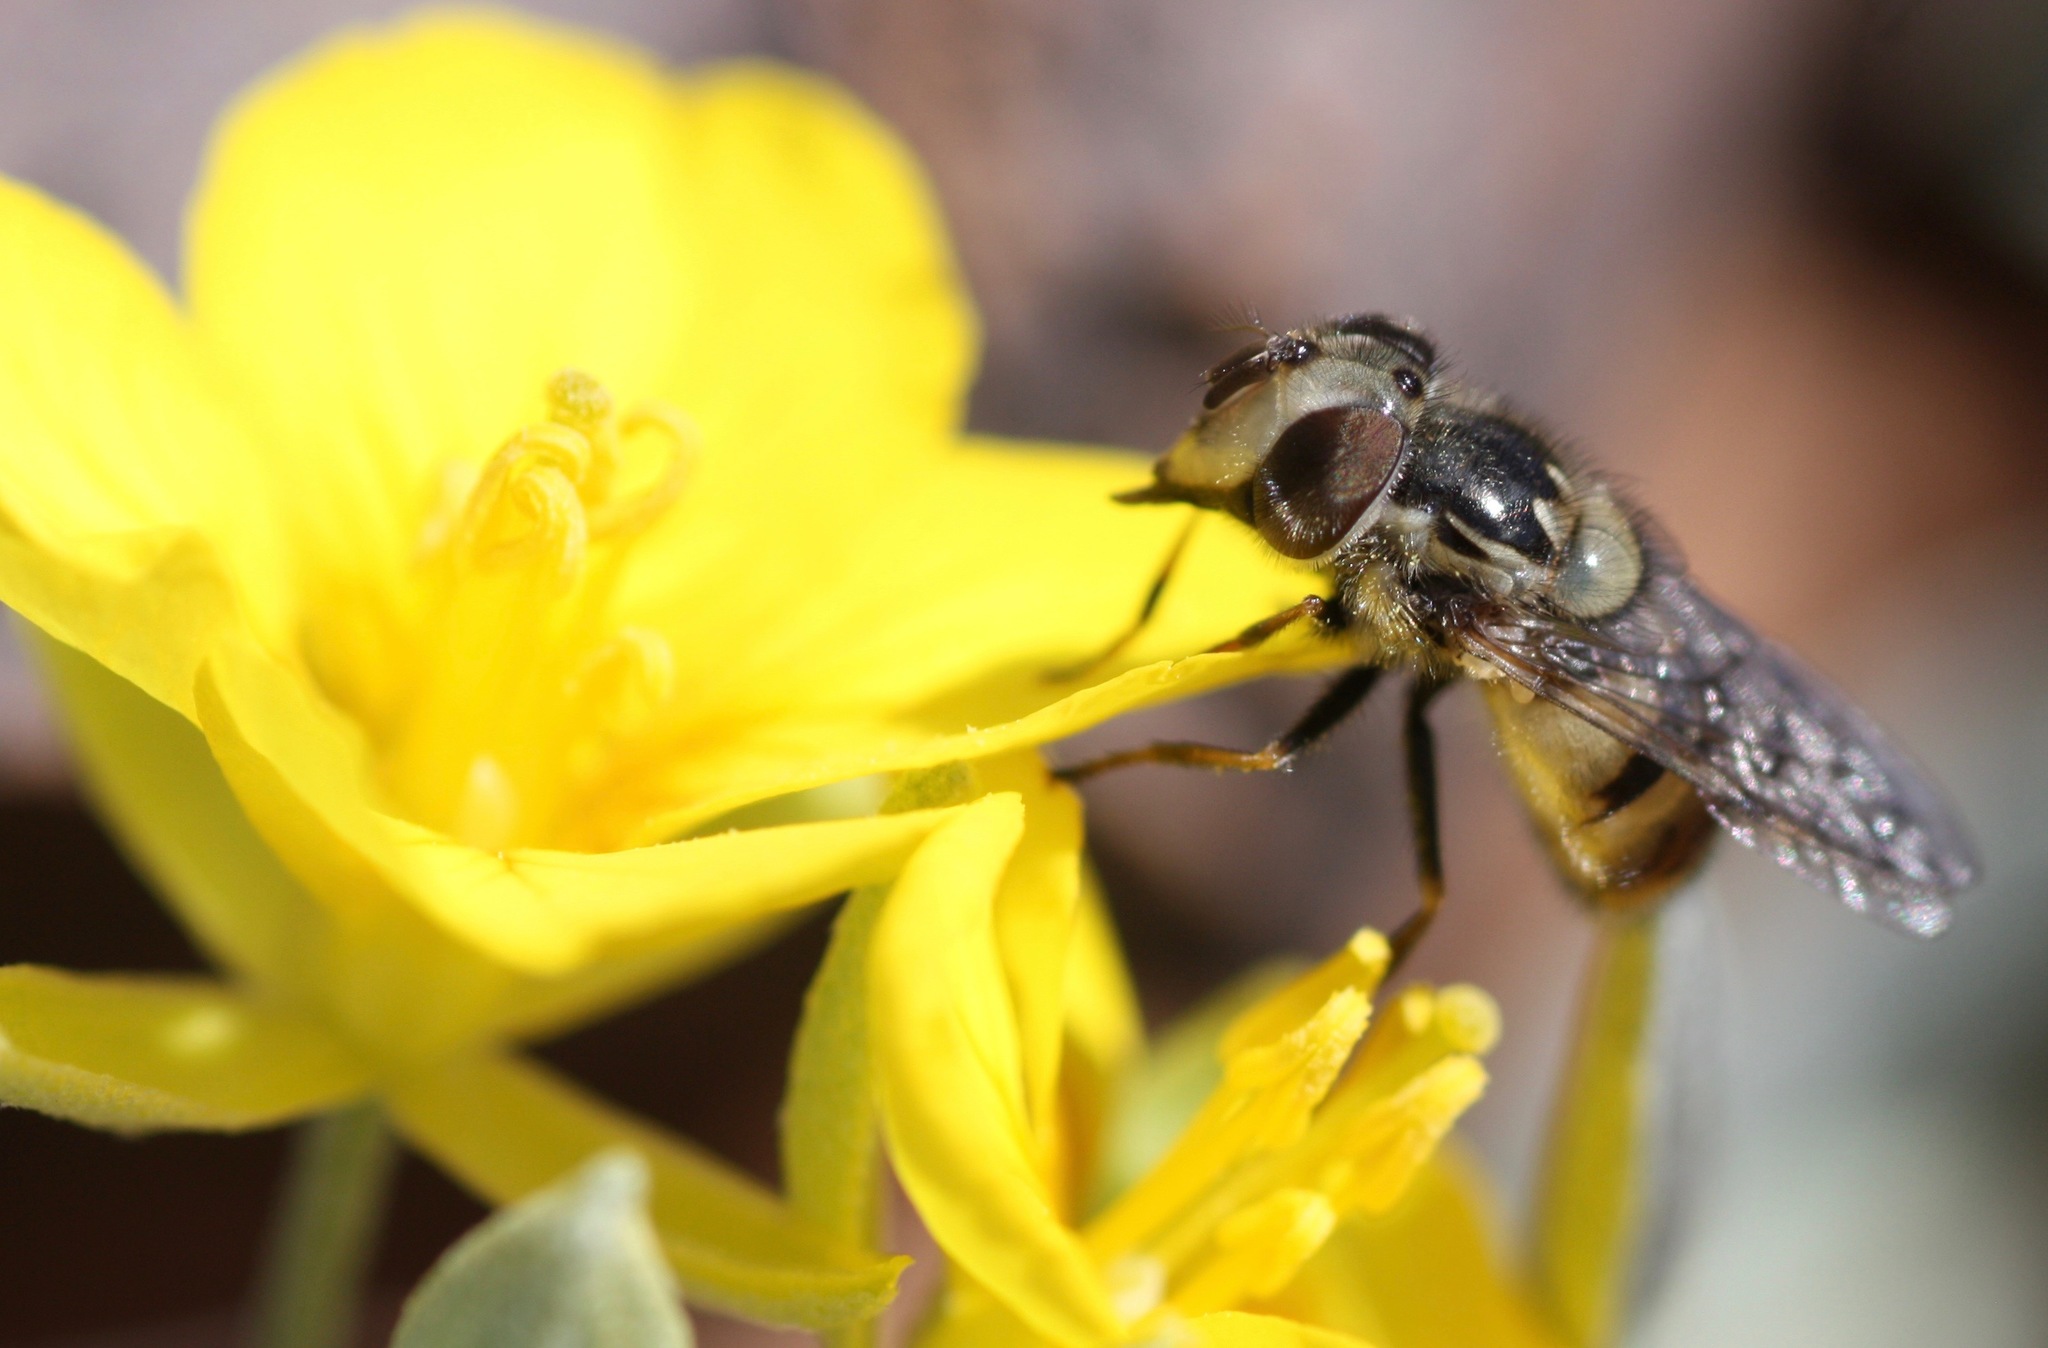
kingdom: Animalia
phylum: Arthropoda
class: Insecta
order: Diptera
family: Syrphidae
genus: Copestylum
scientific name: Copestylum satur
